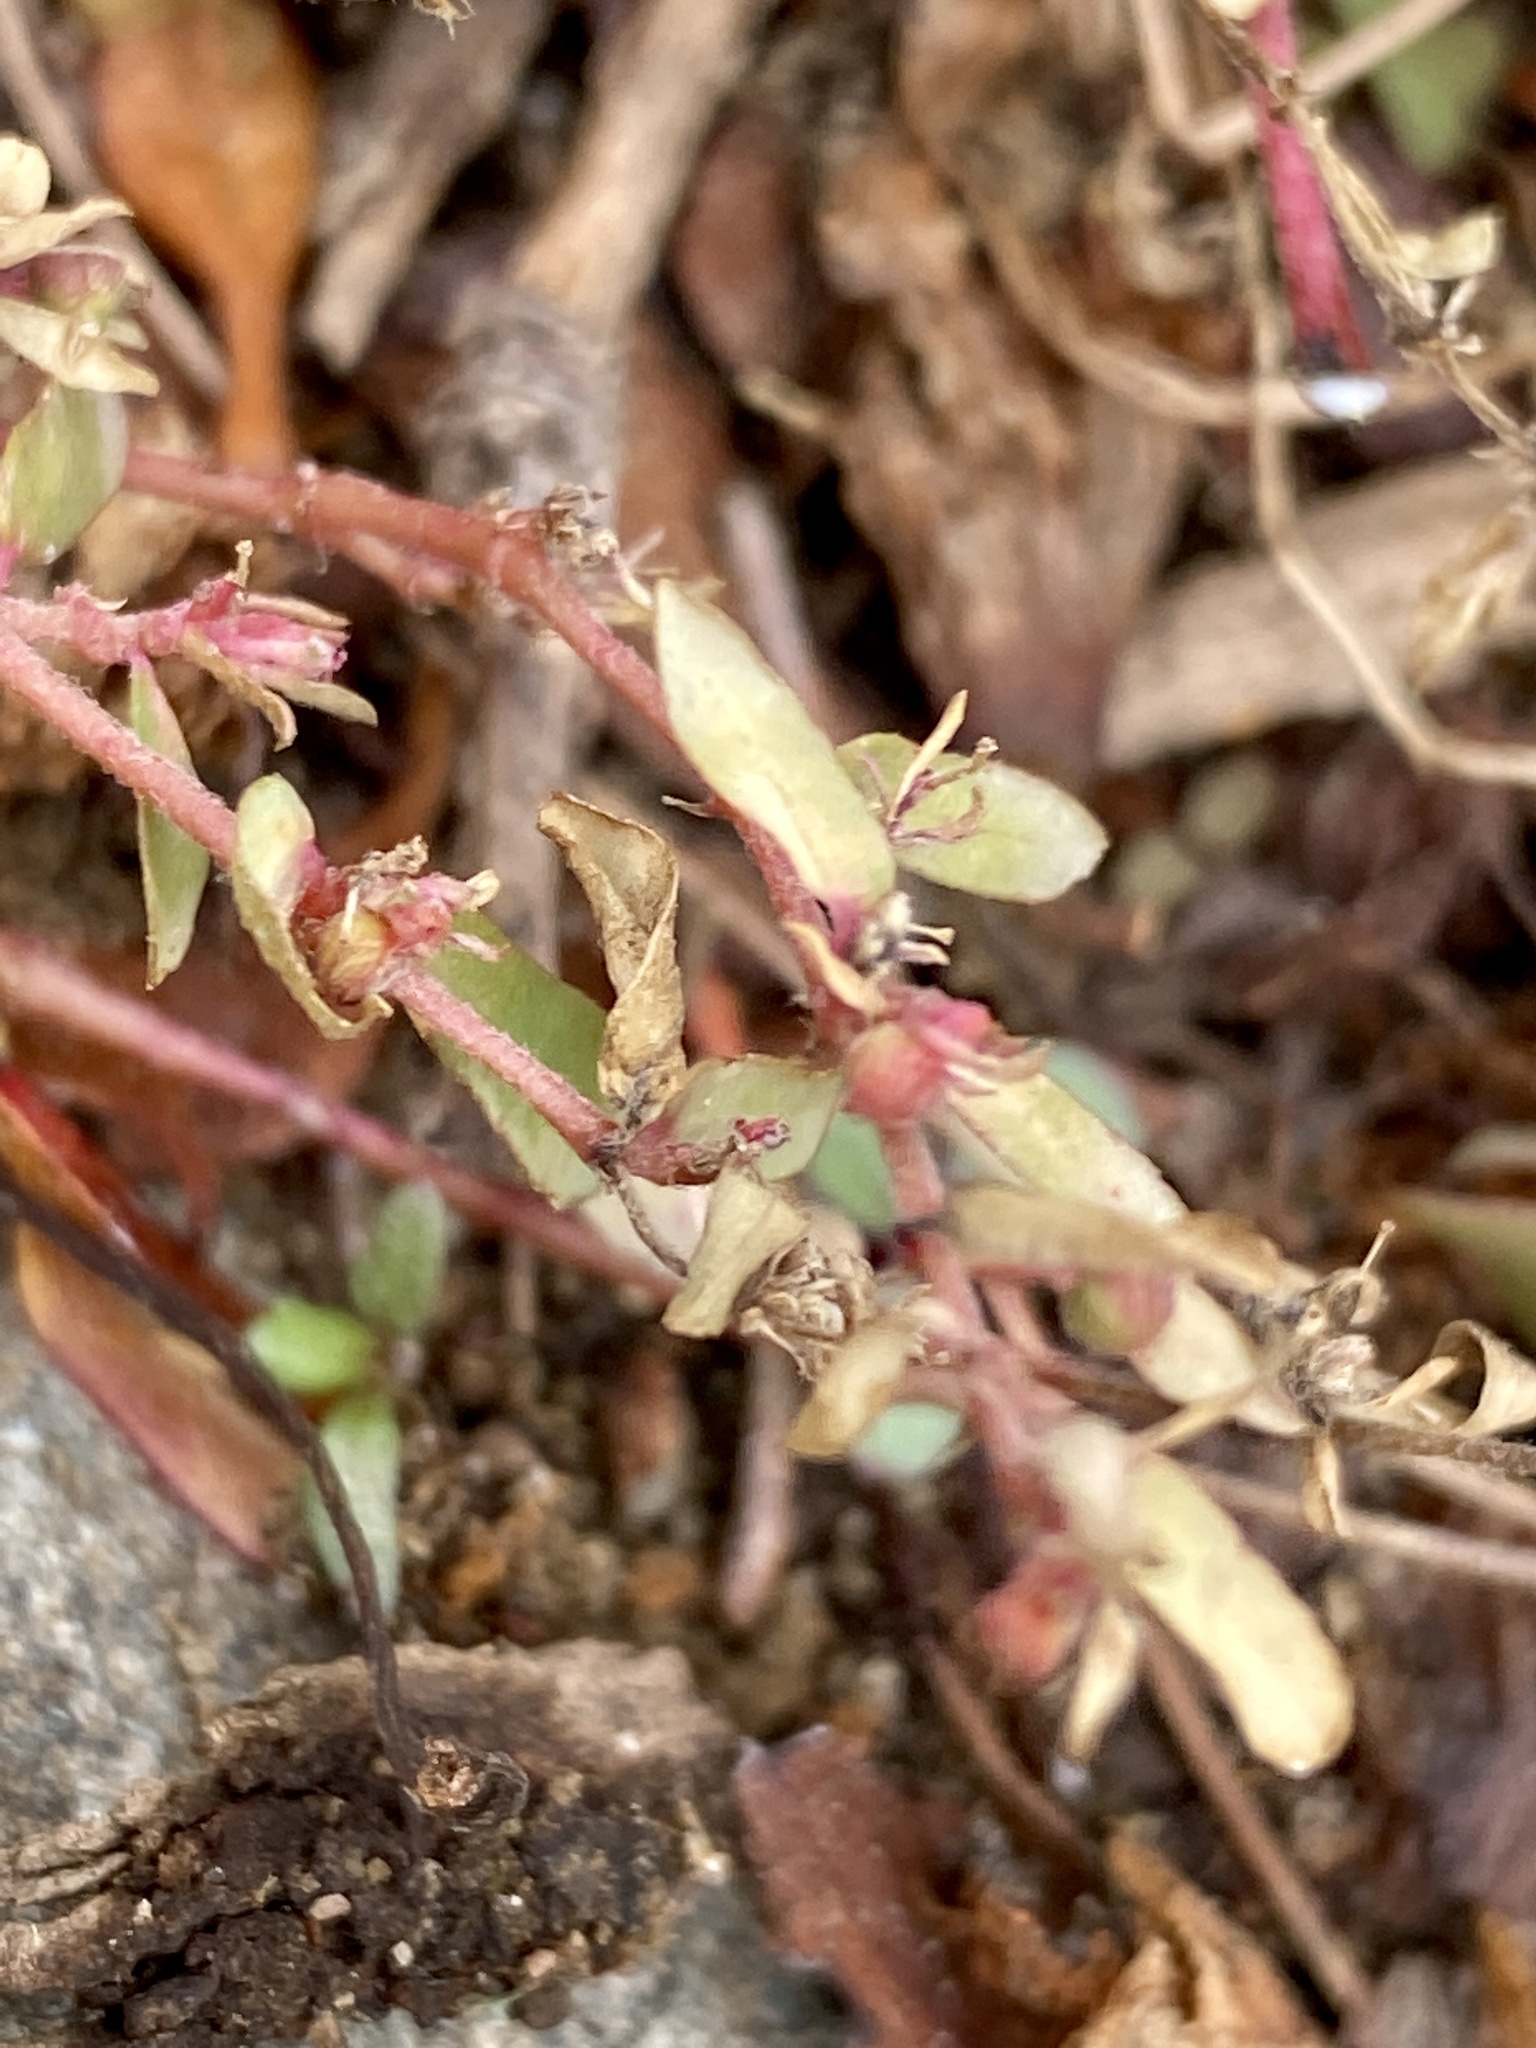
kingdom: Plantae
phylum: Tracheophyta
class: Magnoliopsida
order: Malpighiales
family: Euphorbiaceae
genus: Euphorbia
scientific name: Euphorbia nutans
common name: Eyebane
